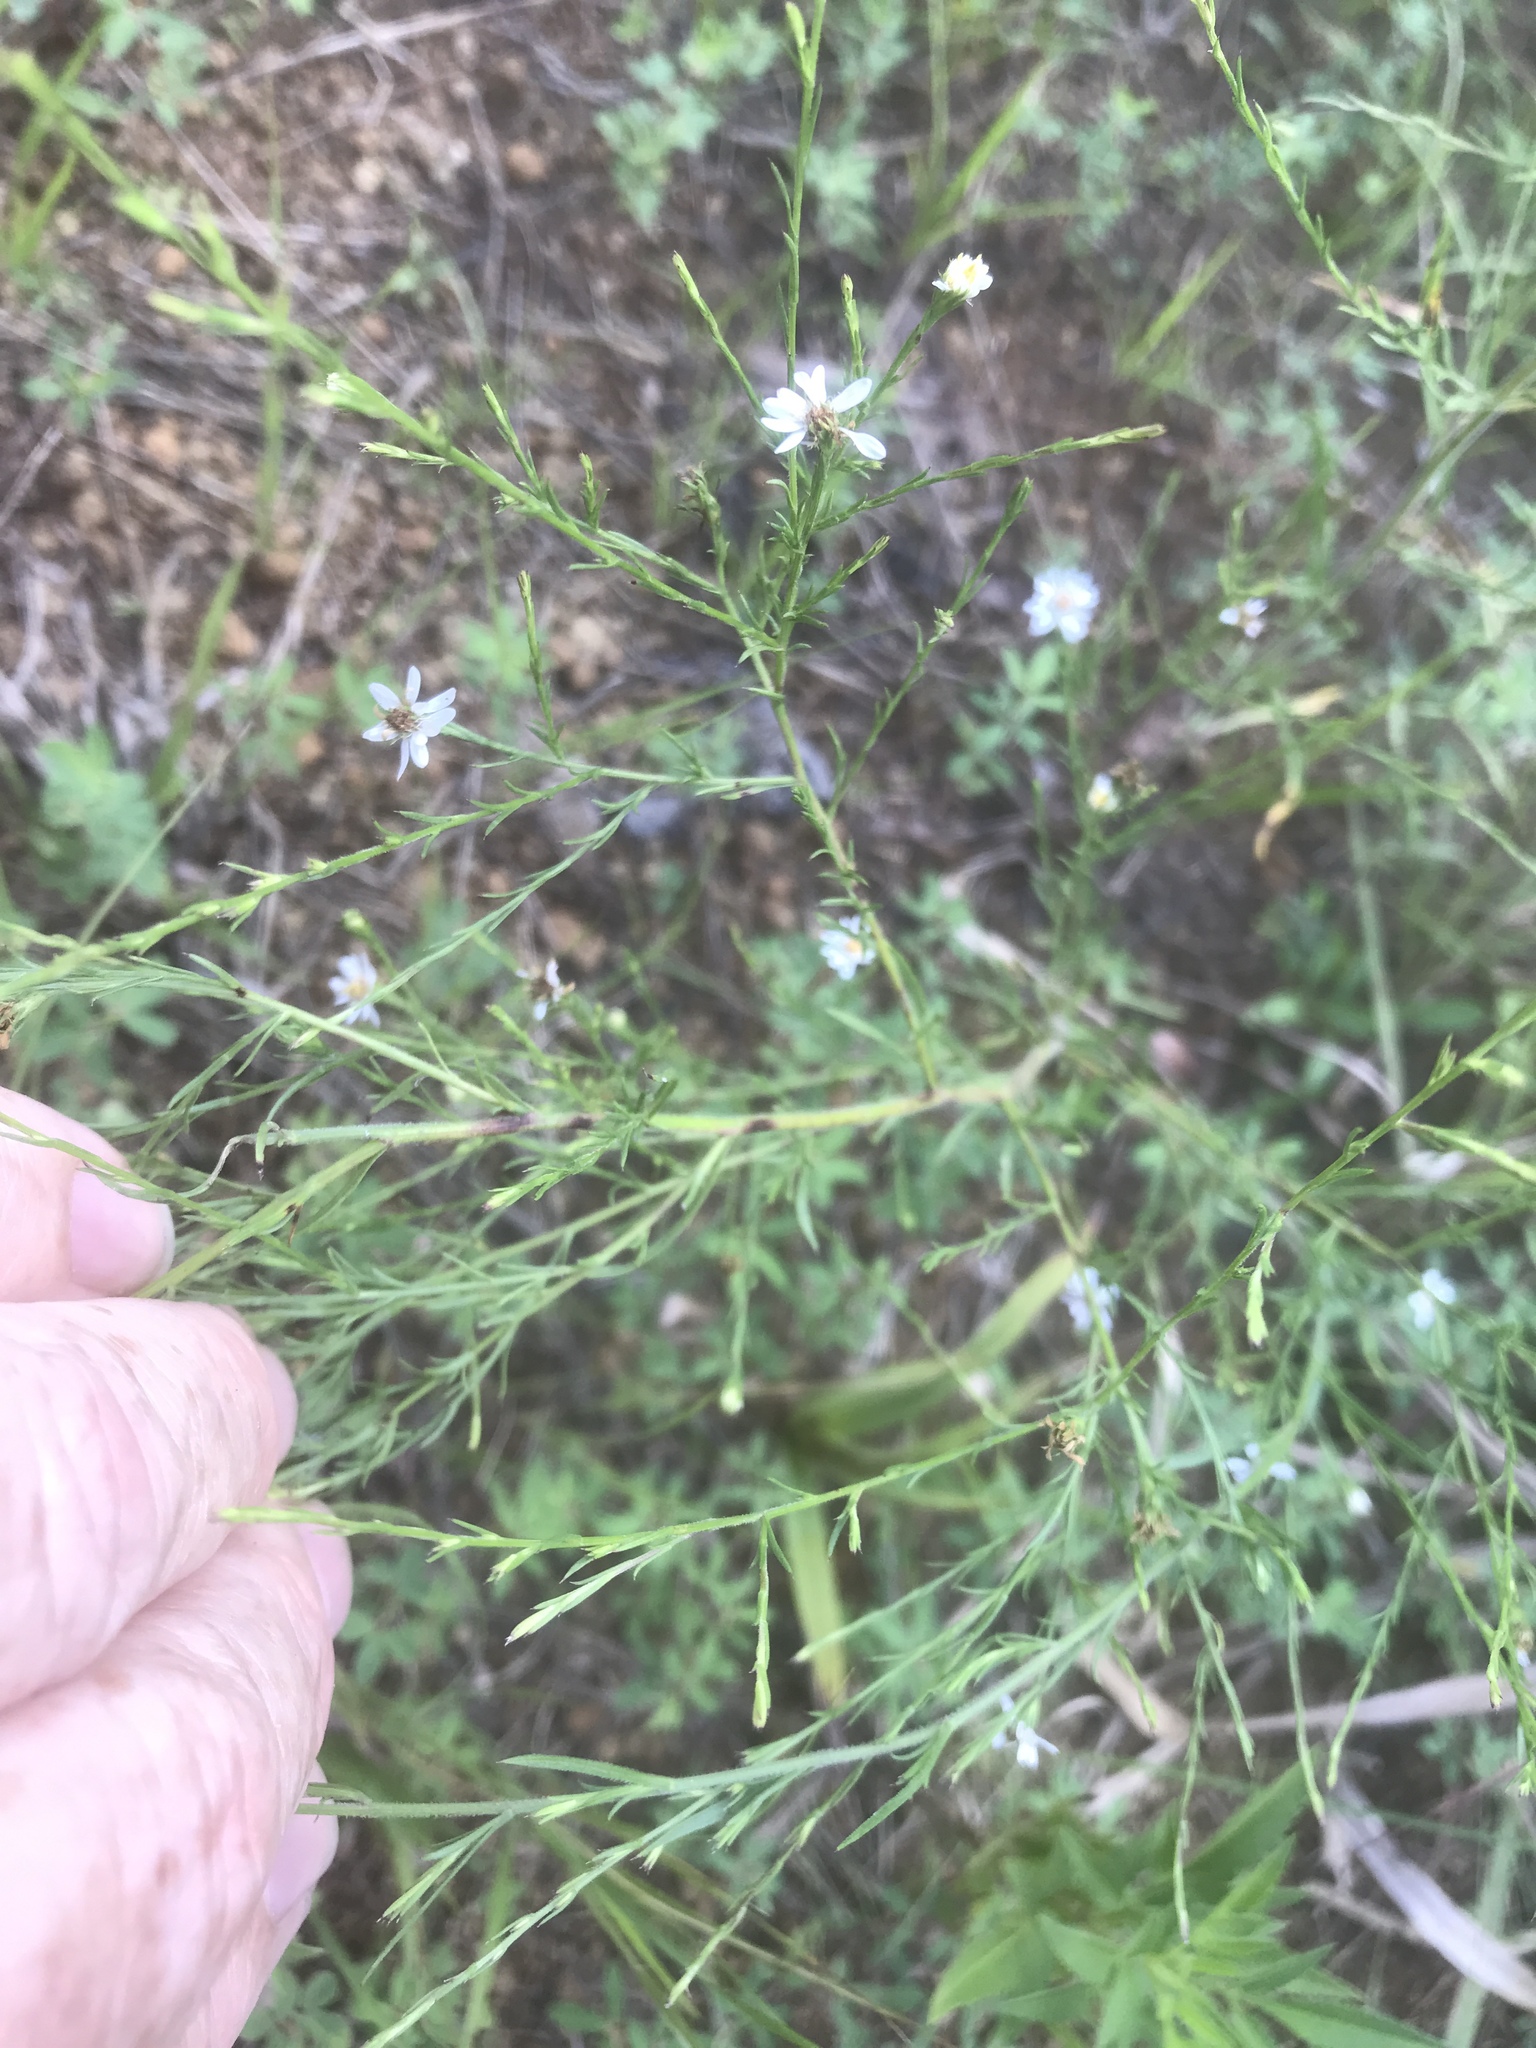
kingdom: Plantae
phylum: Tracheophyta
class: Magnoliopsida
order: Asterales
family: Asteraceae
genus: Symphyotrichum
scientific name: Symphyotrichum depauperatum
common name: Serpentine aster
